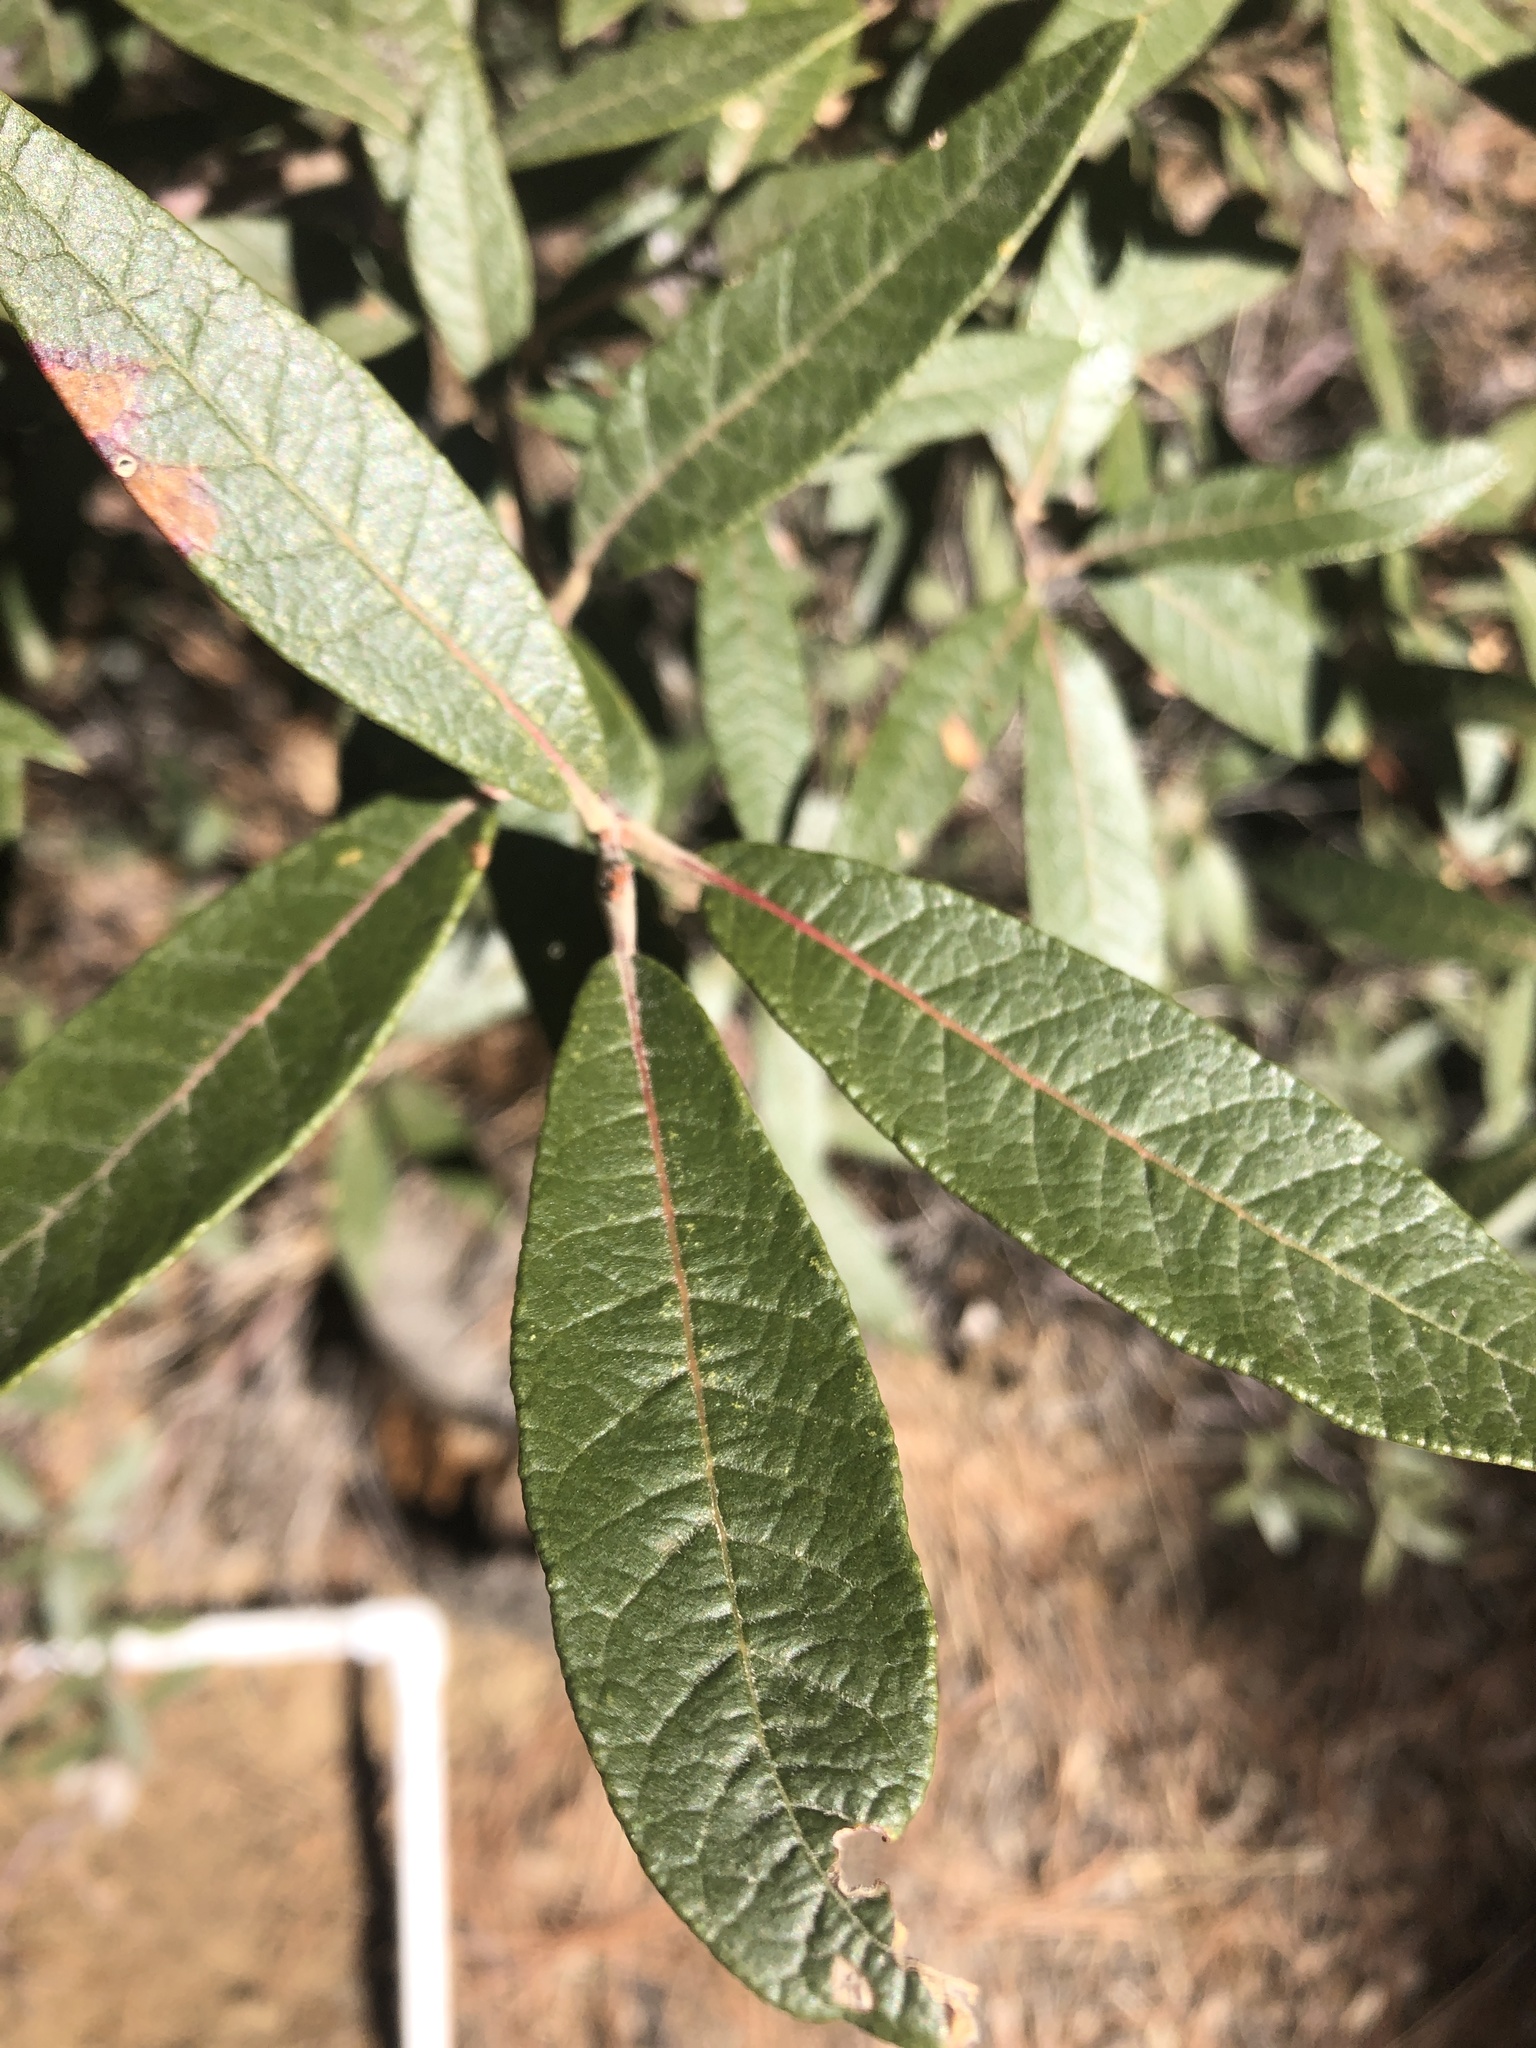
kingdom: Plantae
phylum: Tracheophyta
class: Magnoliopsida
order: Fagales
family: Fagaceae
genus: Quercus
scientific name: Quercus hypoleucoides
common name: Silverleaf oak
